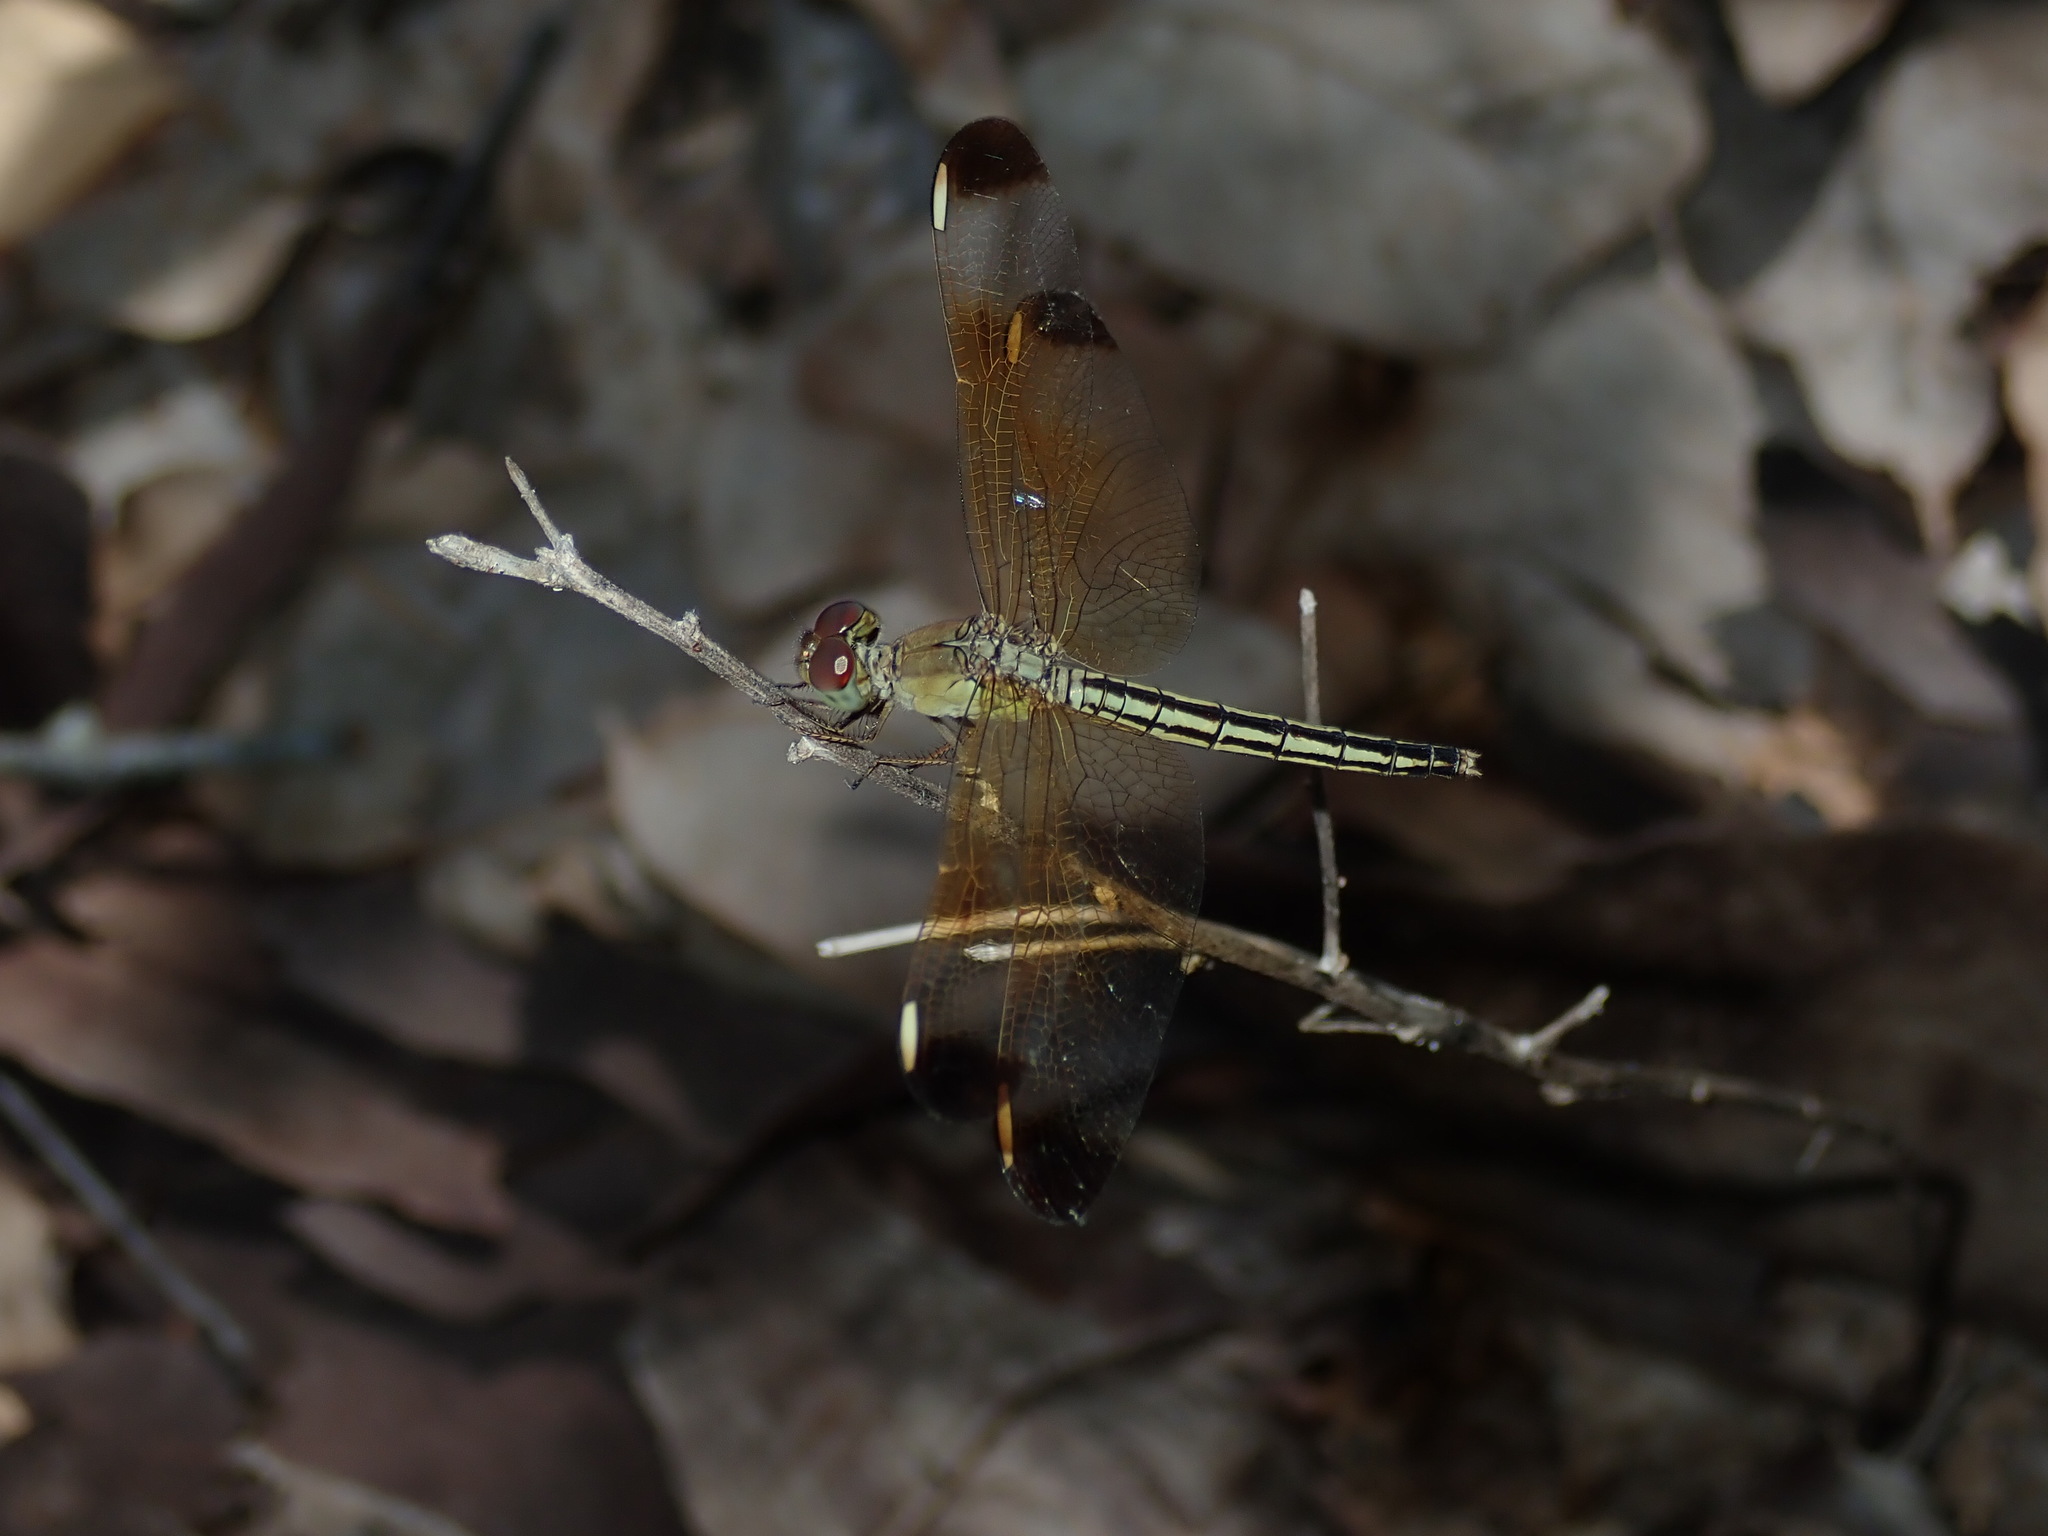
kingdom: Animalia
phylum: Arthropoda
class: Insecta
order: Odonata
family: Libellulidae
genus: Neurothemis
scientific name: Neurothemis stigmatizans
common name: Painted grasshawk
